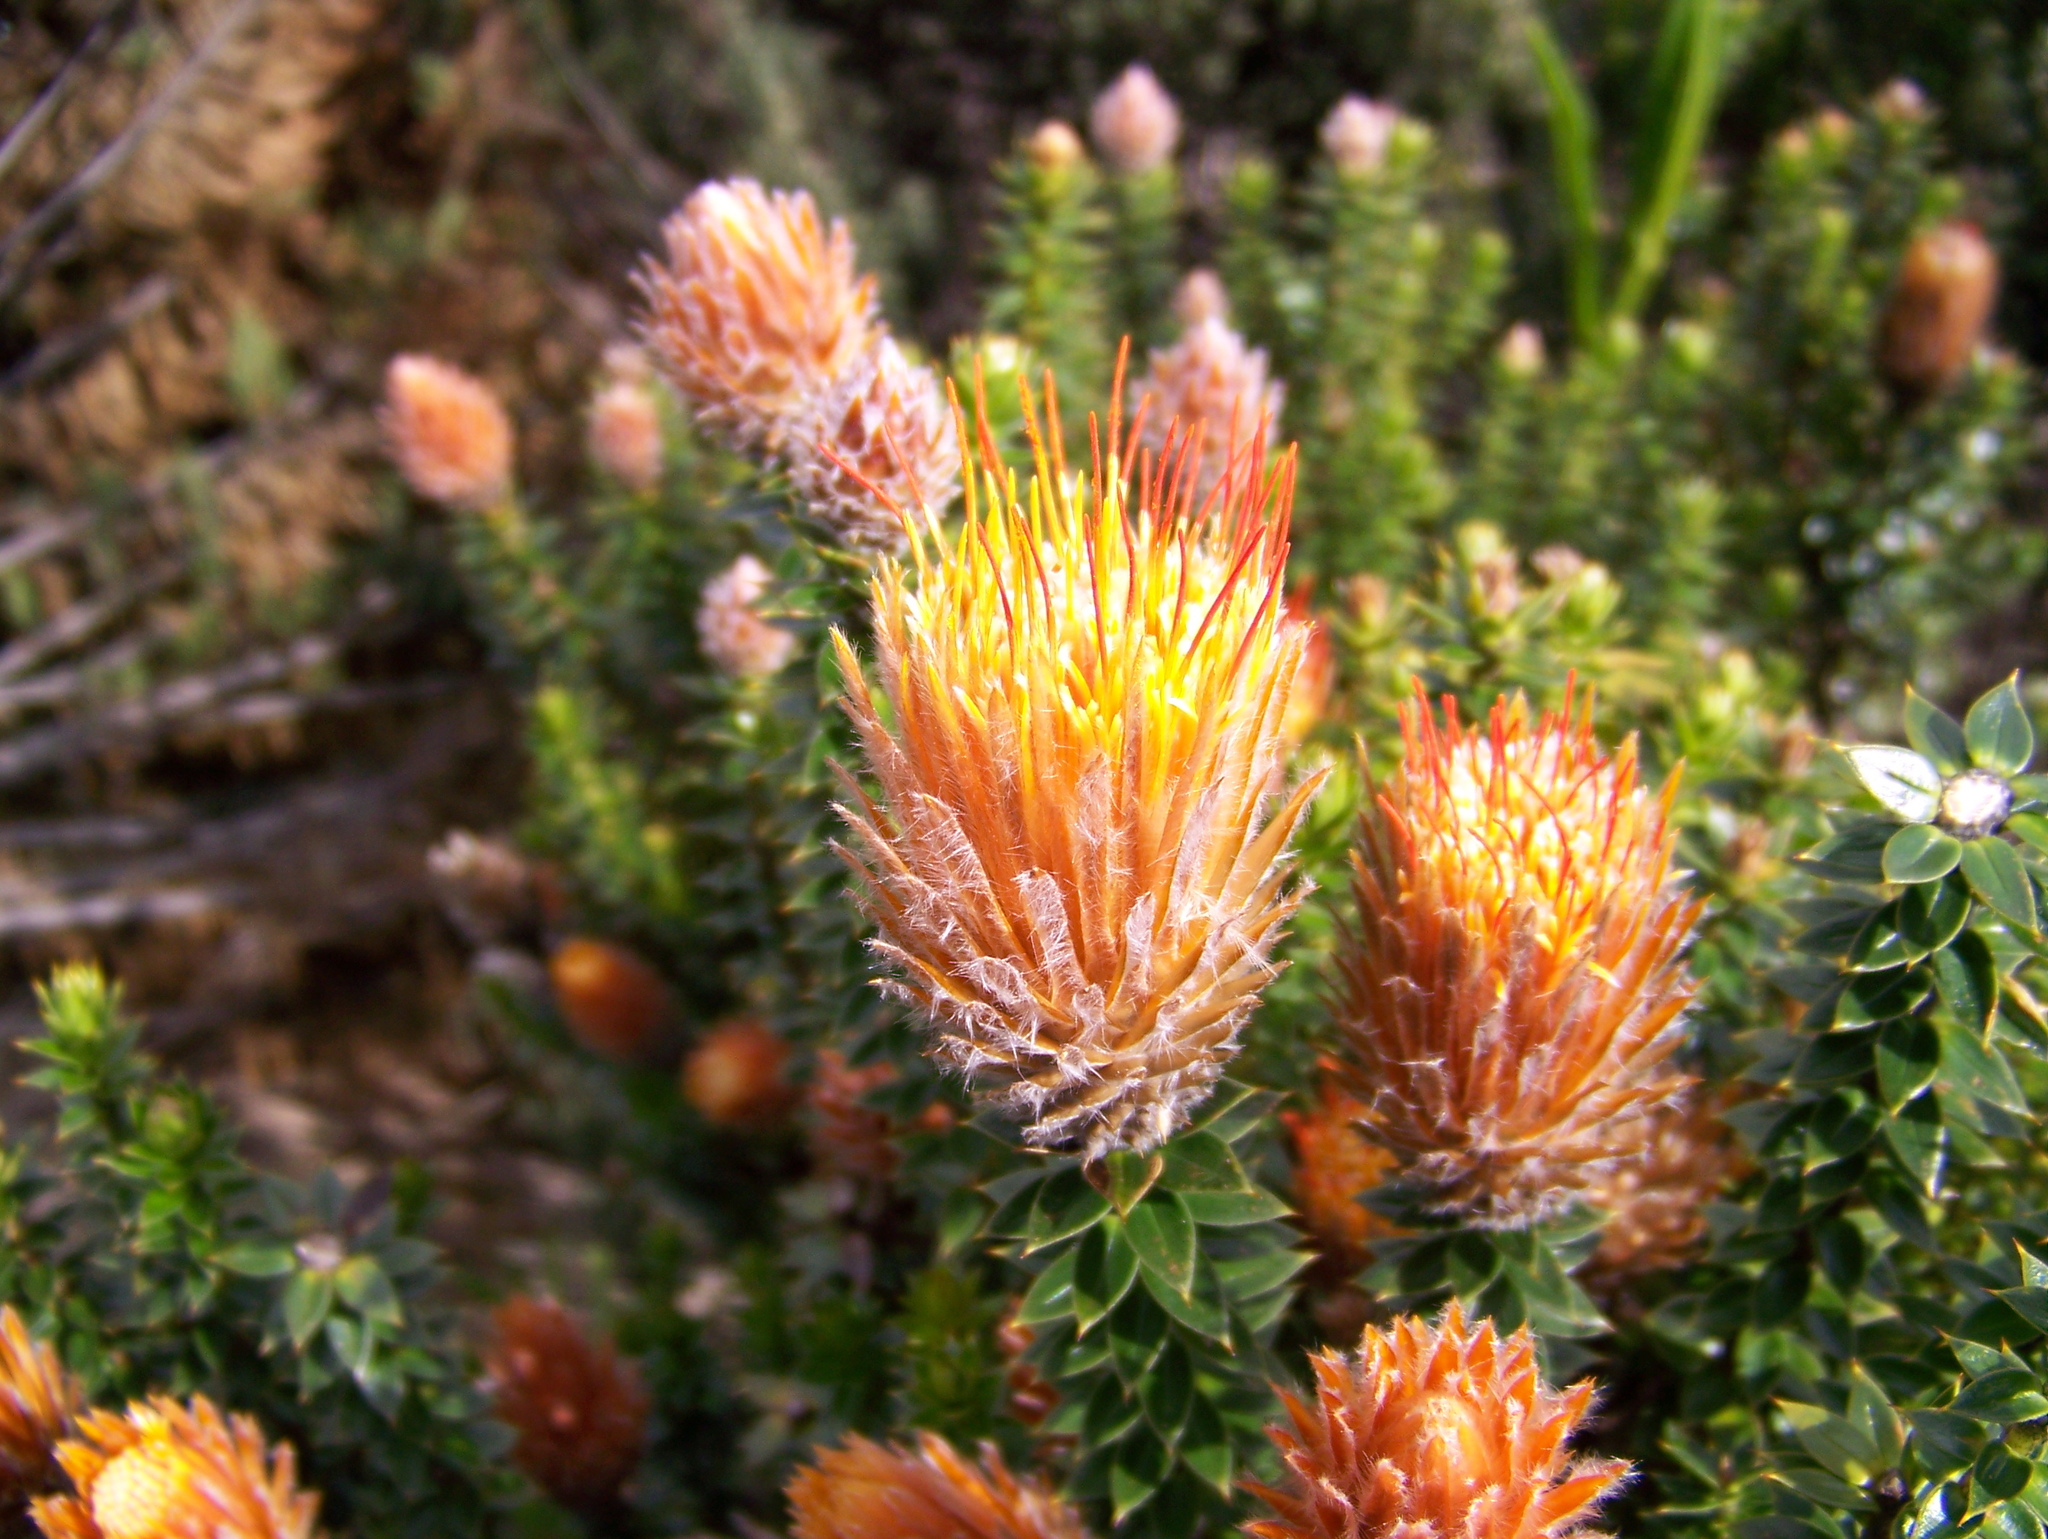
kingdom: Plantae
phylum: Tracheophyta
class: Magnoliopsida
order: Asterales
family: Asteraceae
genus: Chuquiraga
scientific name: Chuquiraga jussieui
